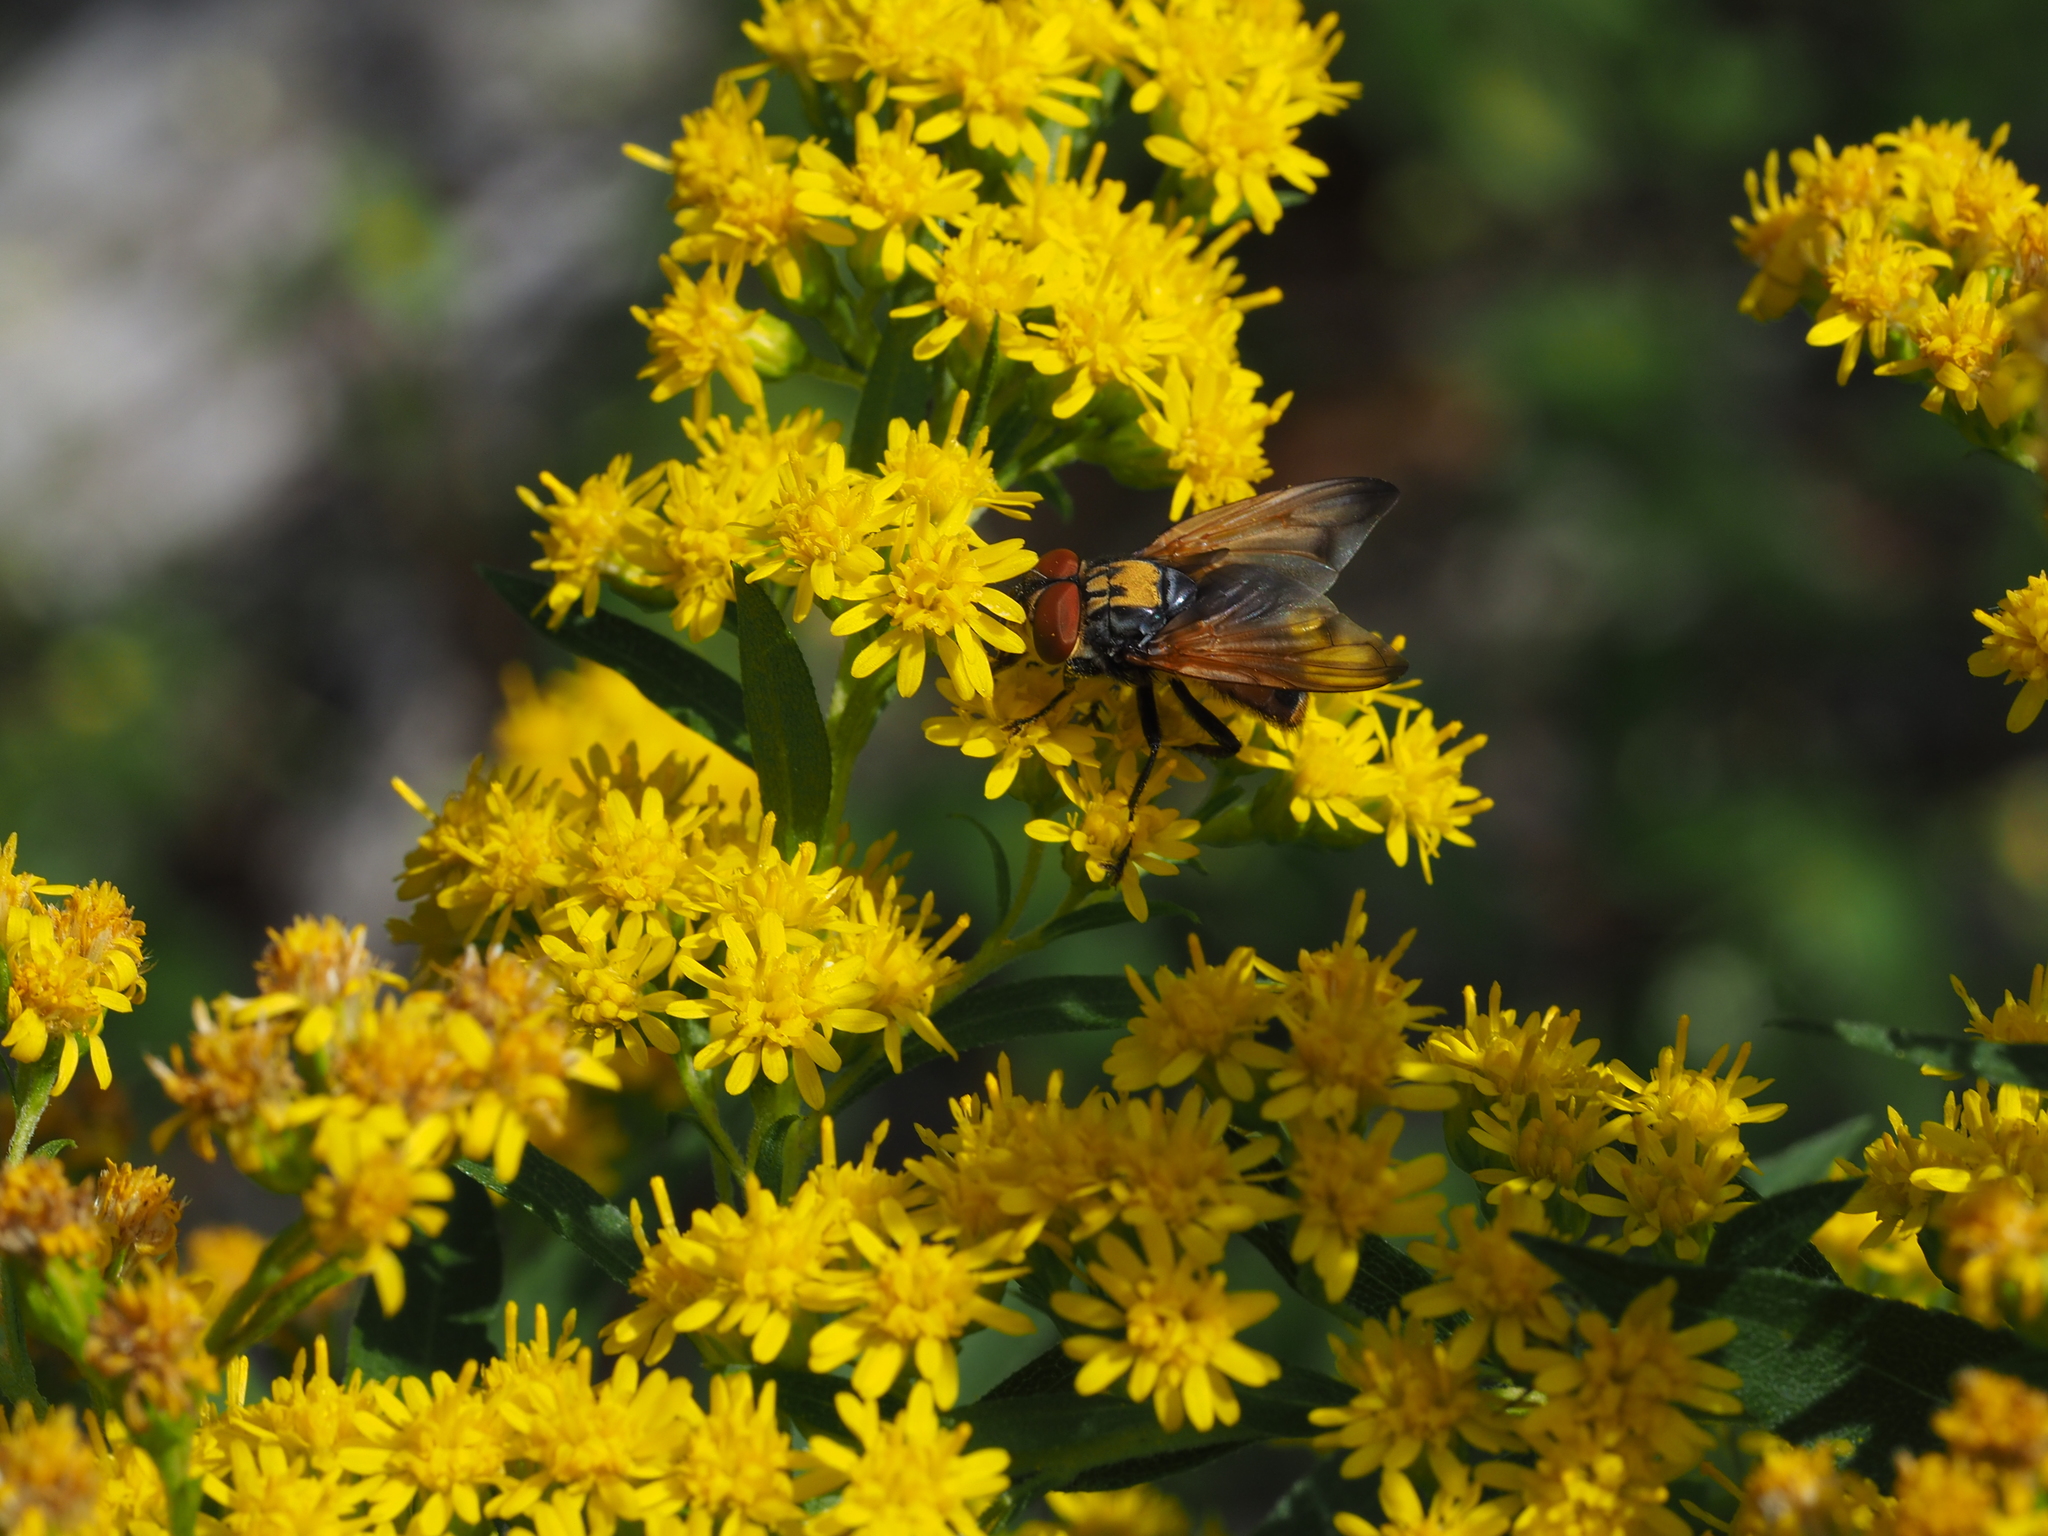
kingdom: Animalia
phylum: Arthropoda
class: Insecta
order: Diptera
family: Tachinidae
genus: Phasia
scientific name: Phasia aurigera
